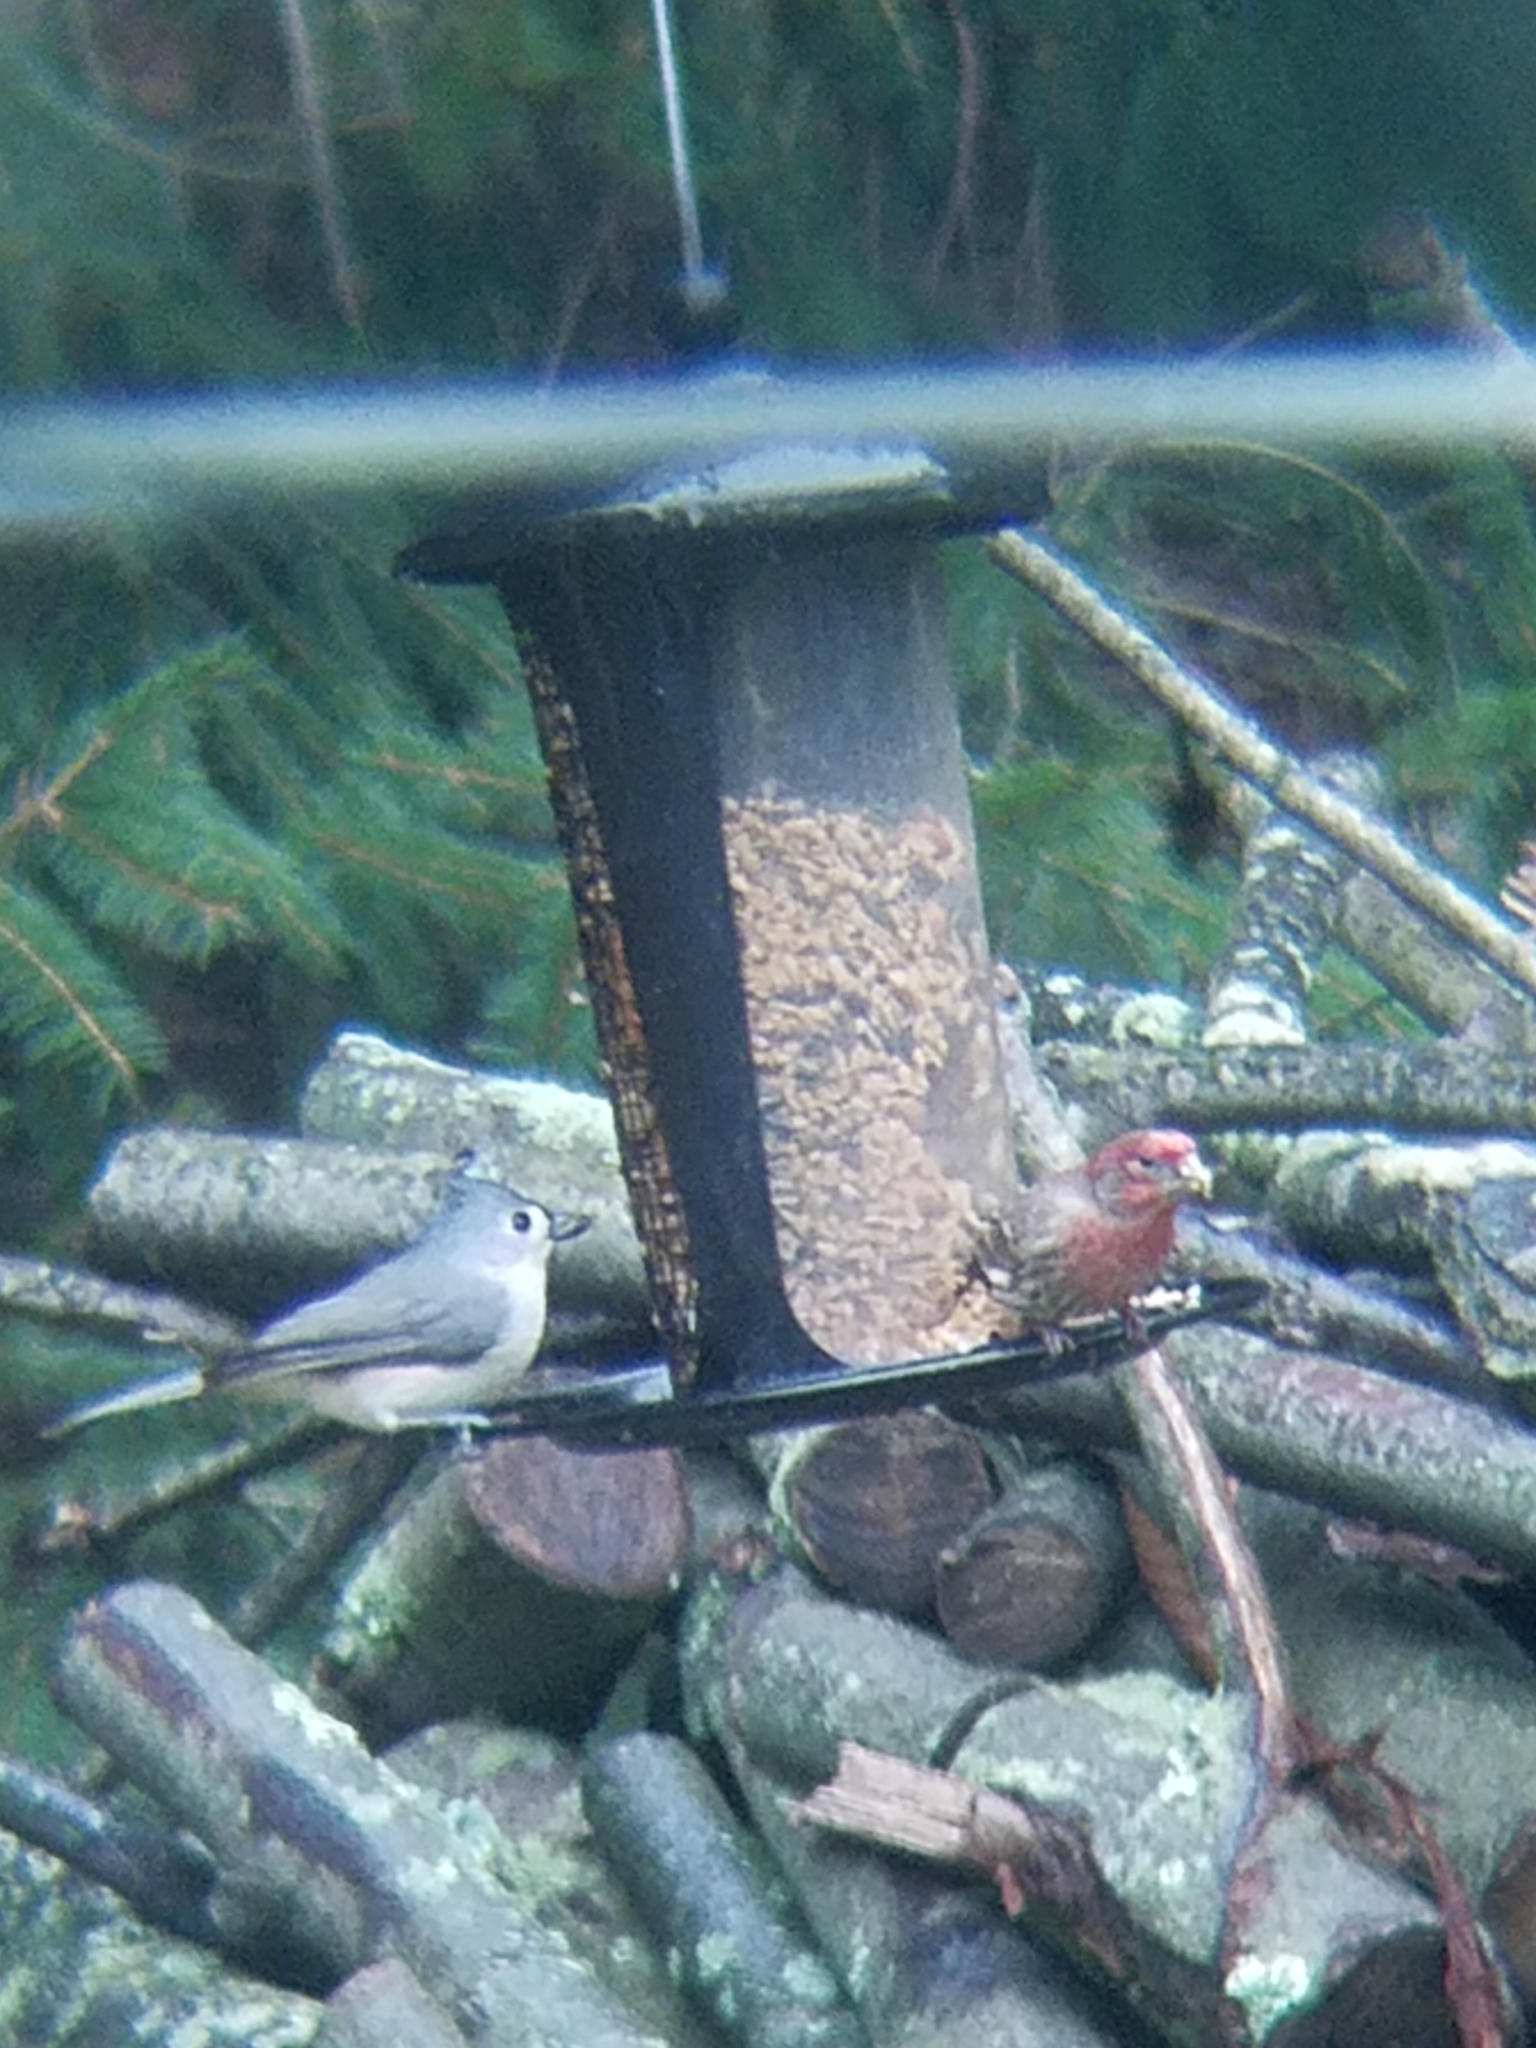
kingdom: Animalia
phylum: Chordata
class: Aves
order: Passeriformes
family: Paridae
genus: Baeolophus
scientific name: Baeolophus bicolor
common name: Tufted titmouse
